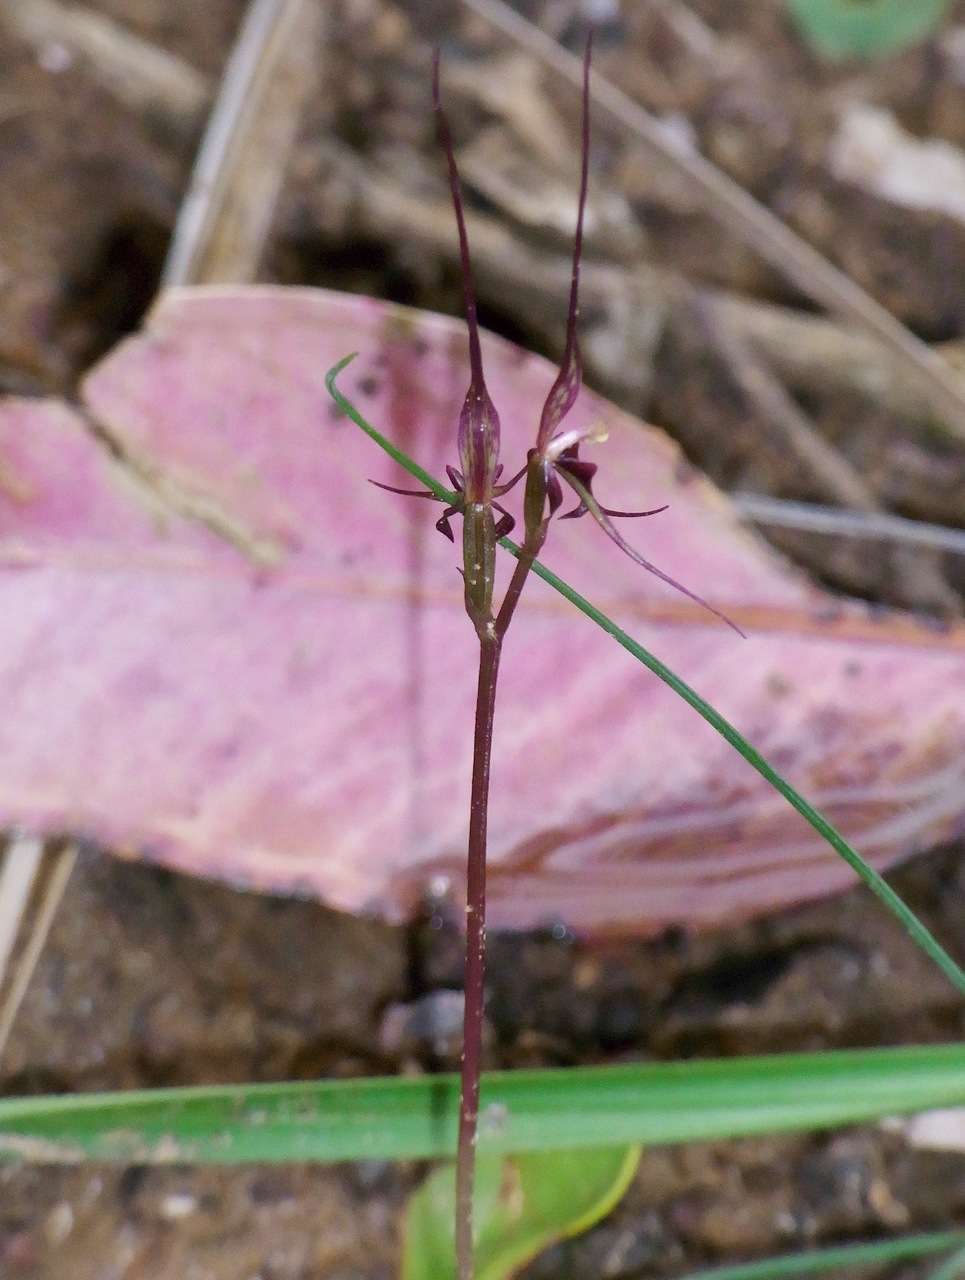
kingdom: Plantae
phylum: Tracheophyta
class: Liliopsida
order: Asparagales
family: Orchidaceae
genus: Acianthus
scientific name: Acianthus caudatus
